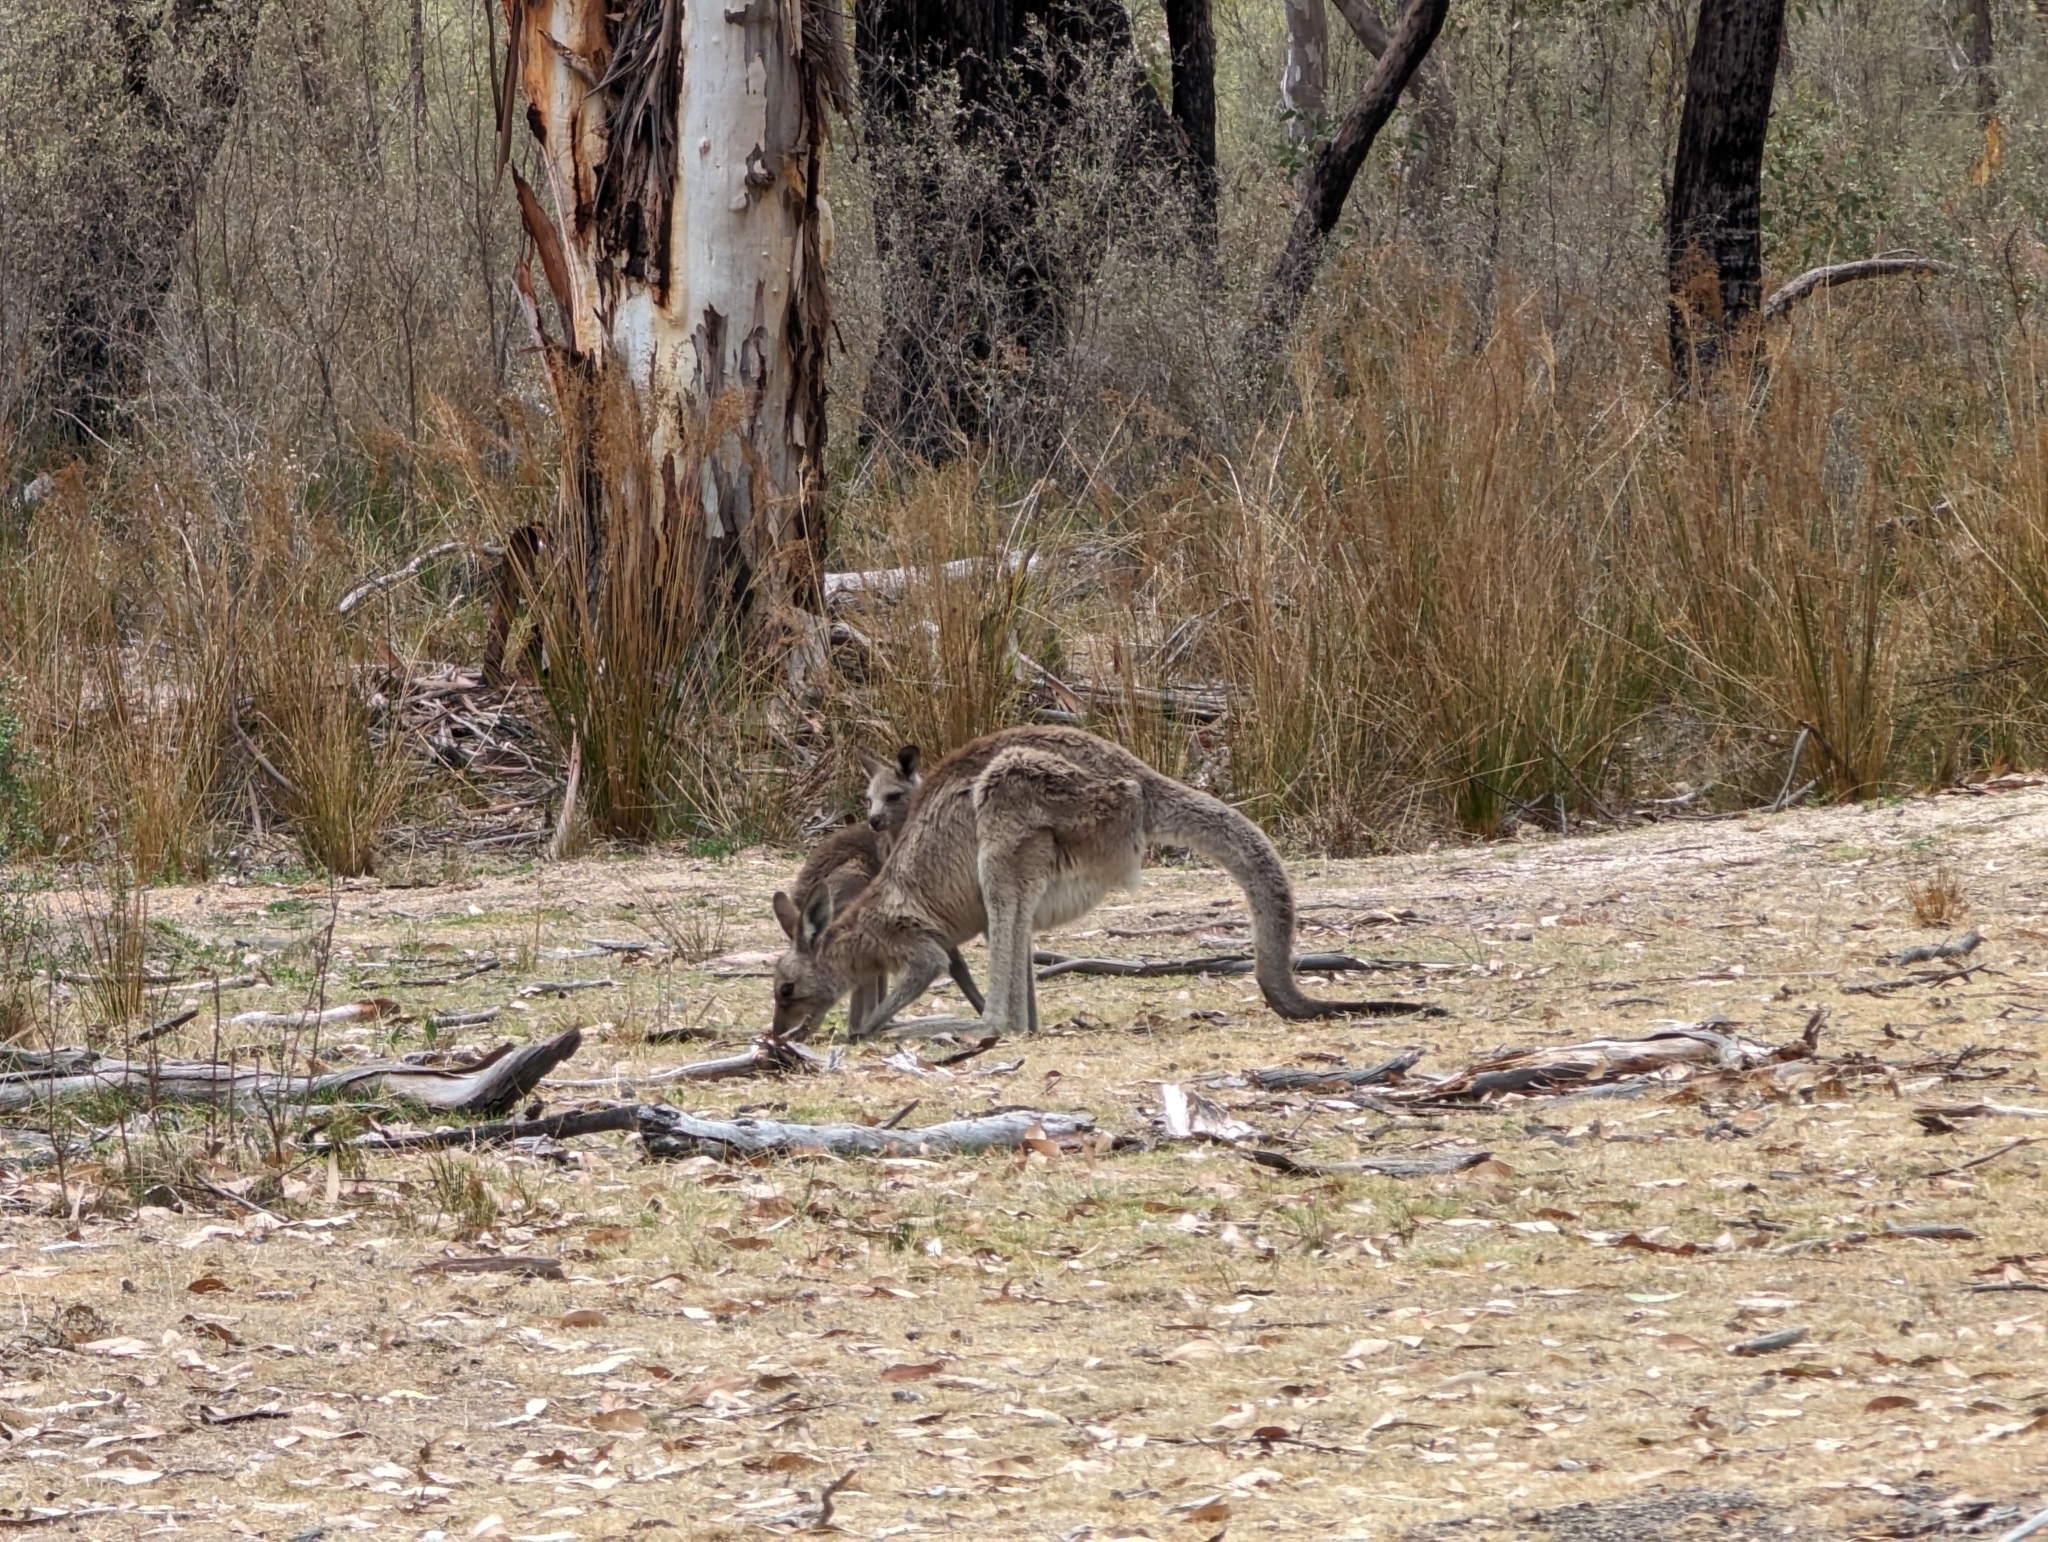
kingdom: Animalia
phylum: Chordata
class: Mammalia
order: Diprotodontia
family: Macropodidae
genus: Macropus
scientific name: Macropus giganteus
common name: Eastern grey kangaroo
